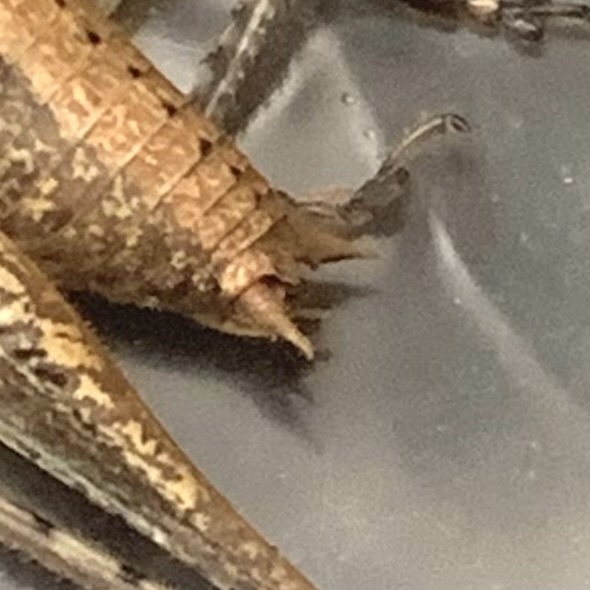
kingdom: Animalia
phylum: Arthropoda
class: Insecta
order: Orthoptera
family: Tettigoniidae
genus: Rhacocleis
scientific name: Rhacocleis annulata
